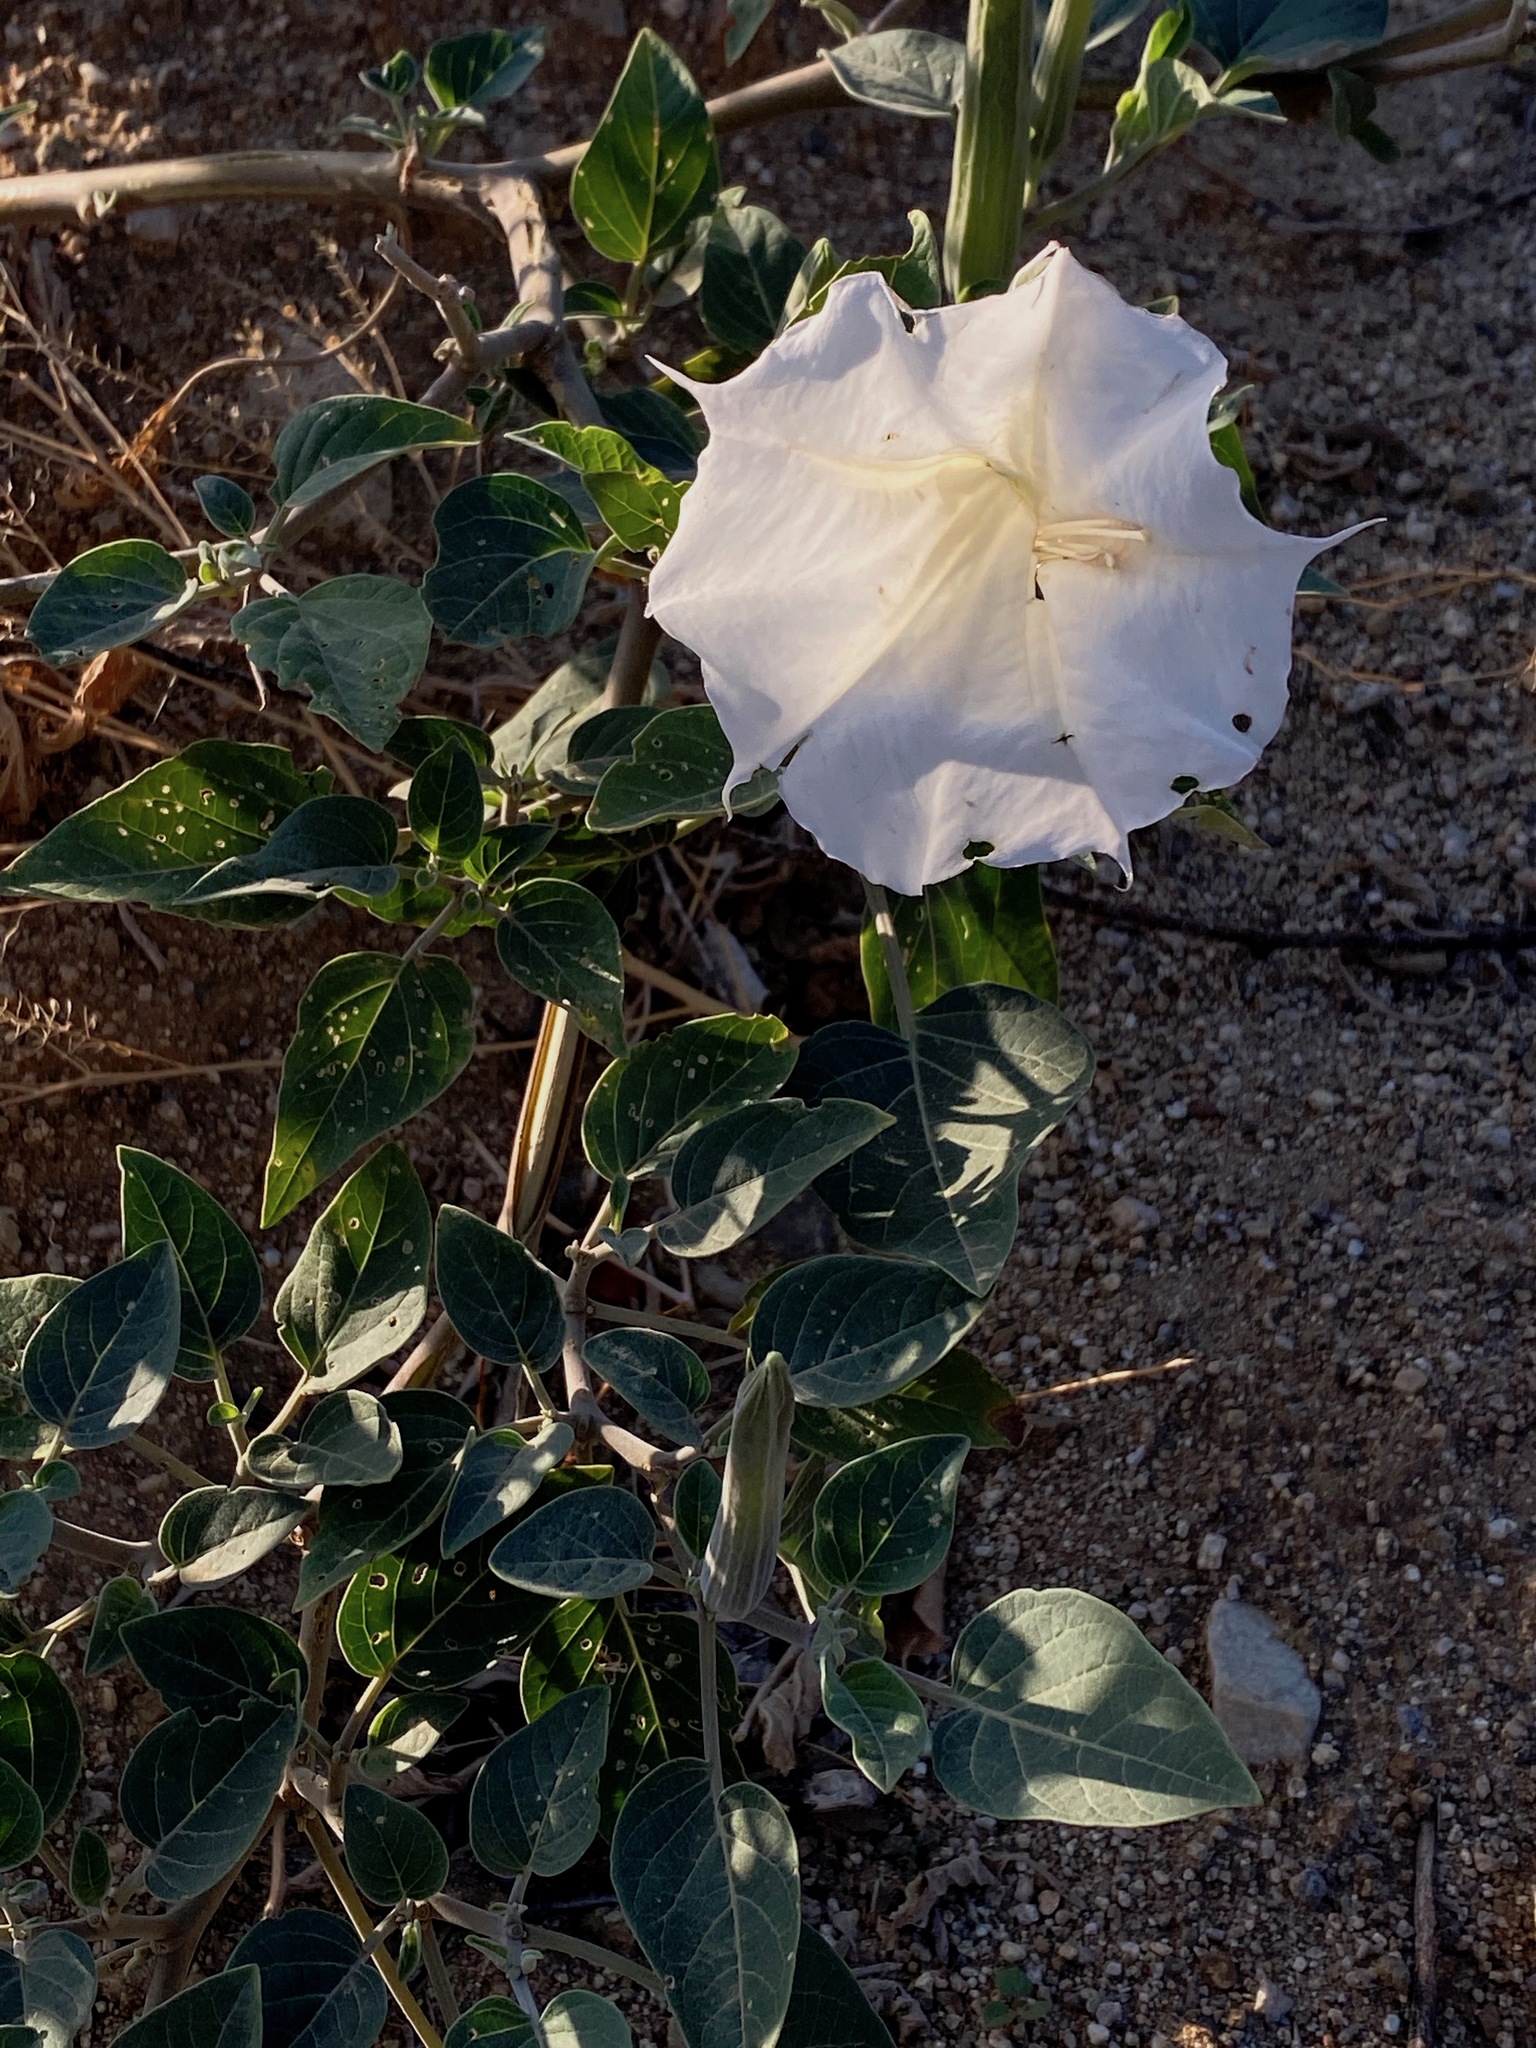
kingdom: Plantae
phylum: Tracheophyta
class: Magnoliopsida
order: Solanales
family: Solanaceae
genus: Datura
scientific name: Datura wrightii
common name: Sacred thorn-apple
